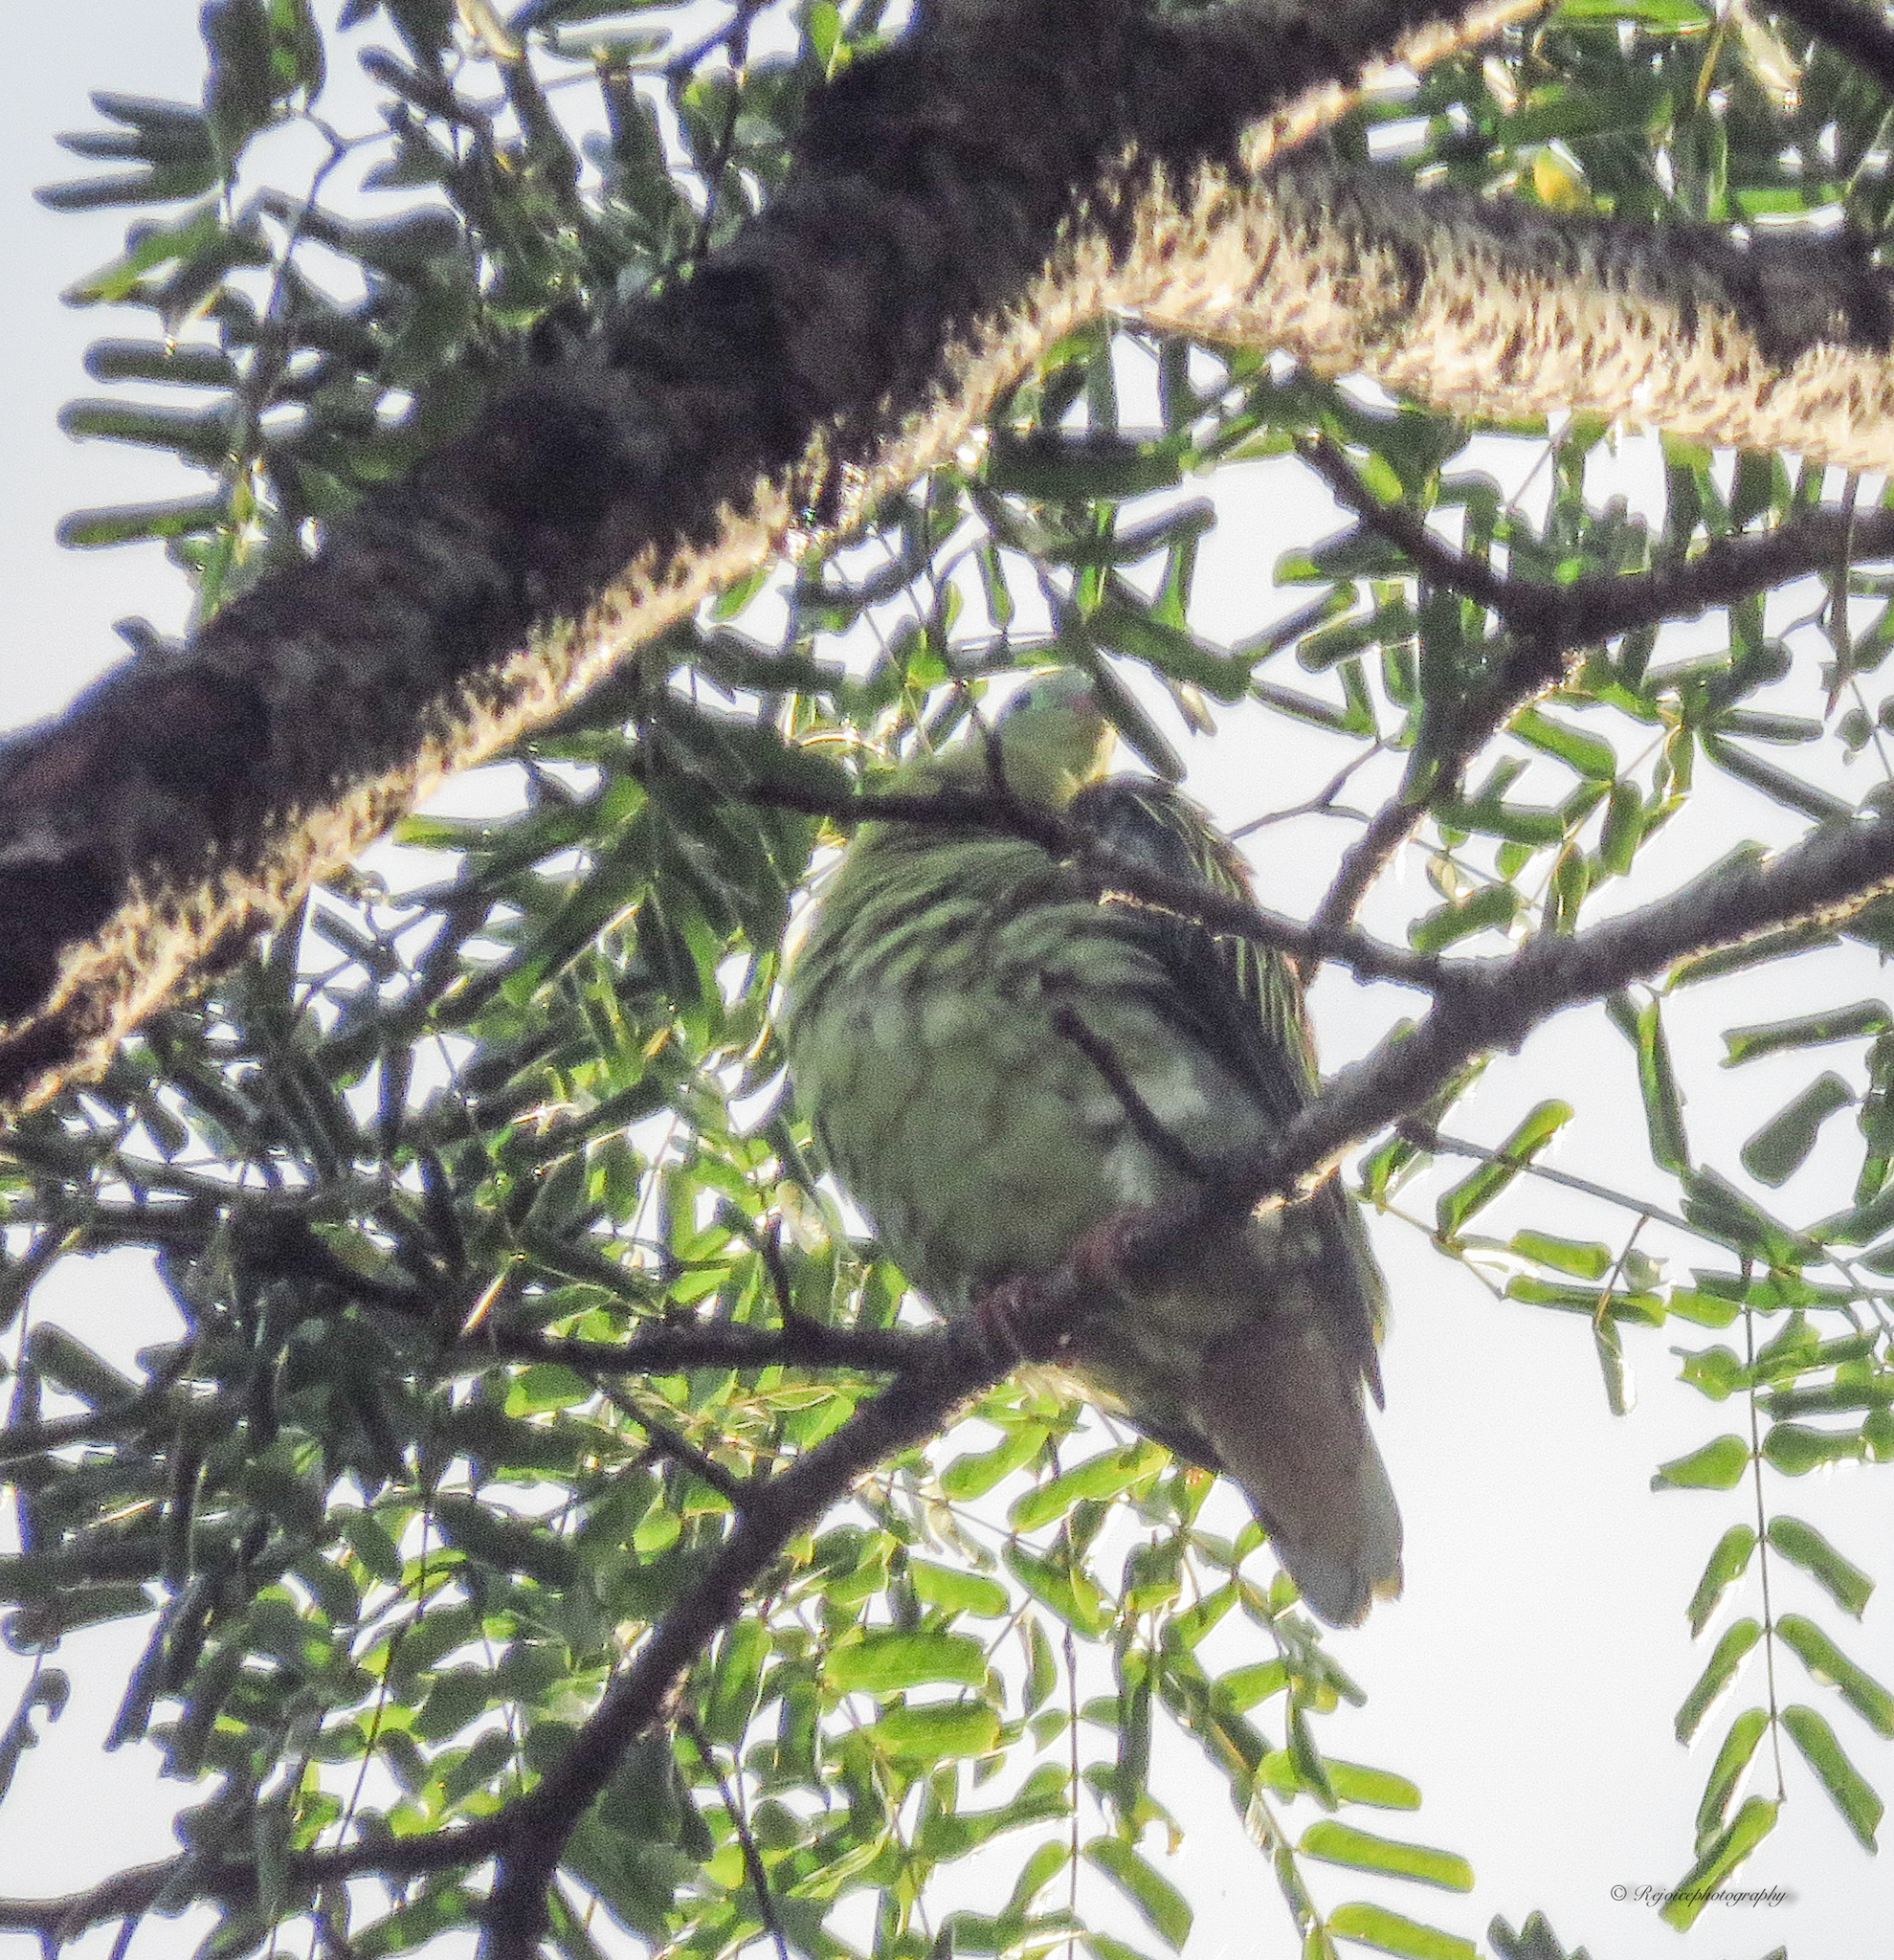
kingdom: Animalia
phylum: Chordata
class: Aves
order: Columbiformes
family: Columbidae
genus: Treron
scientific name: Treron curvirostra
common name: Thick-billed green pigeon
